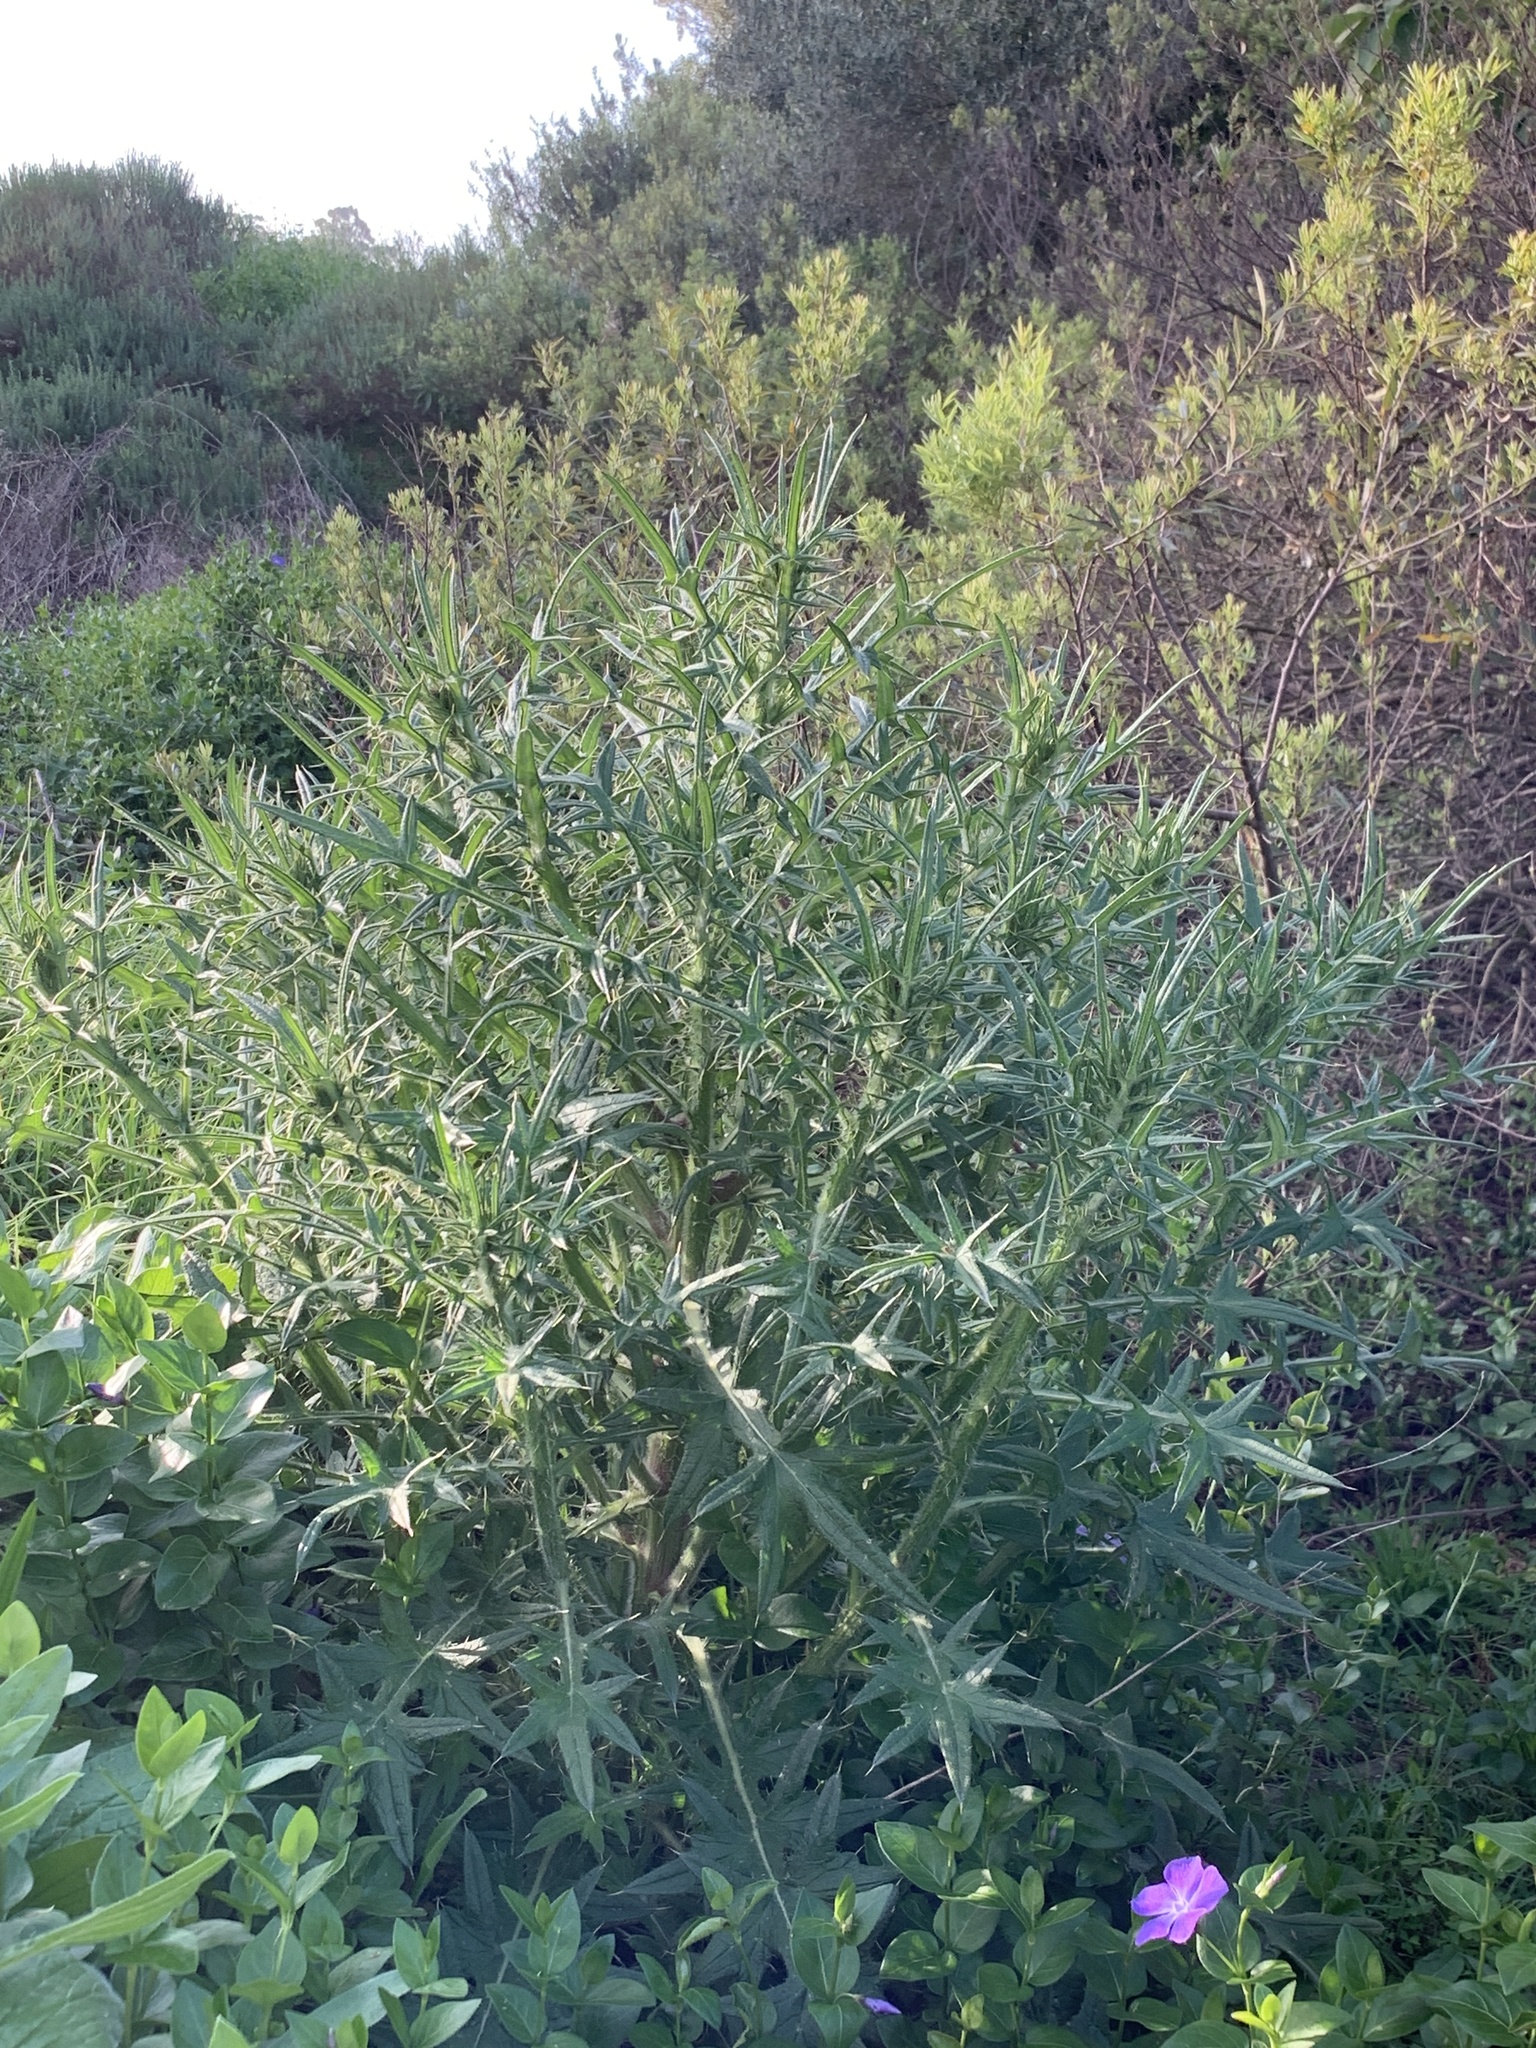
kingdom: Plantae
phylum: Tracheophyta
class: Magnoliopsida
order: Asterales
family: Asteraceae
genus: Cirsium
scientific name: Cirsium vulgare
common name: Bull thistle
